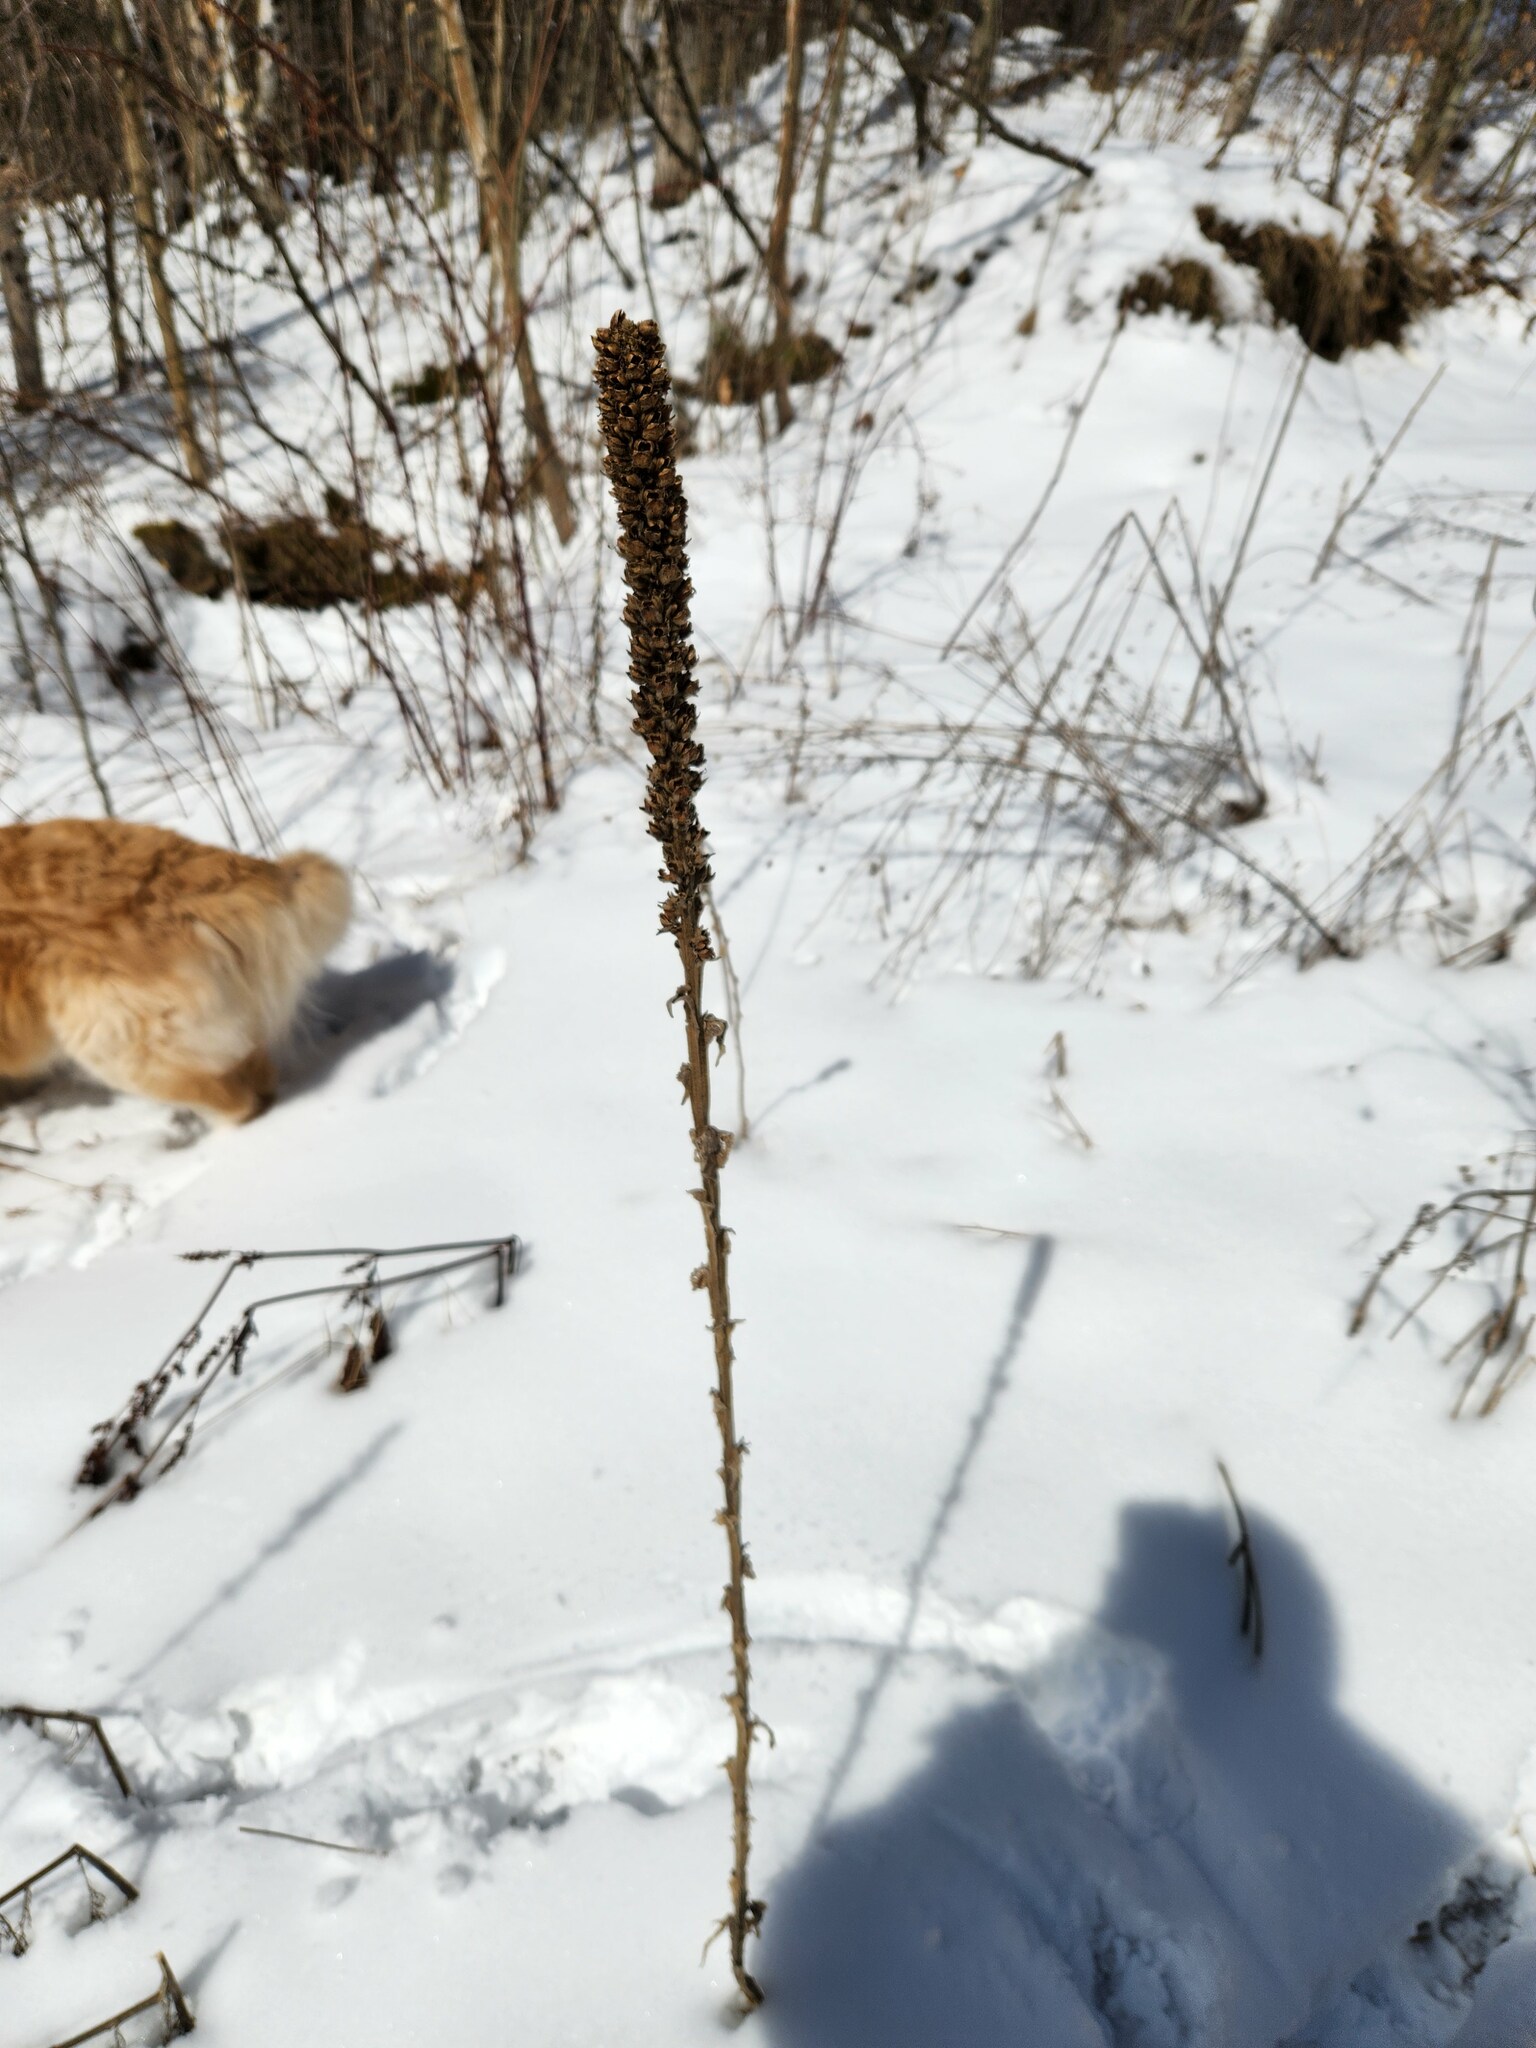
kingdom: Plantae
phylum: Tracheophyta
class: Magnoliopsida
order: Lamiales
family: Scrophulariaceae
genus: Verbascum
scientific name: Verbascum thapsus
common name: Common mullein
